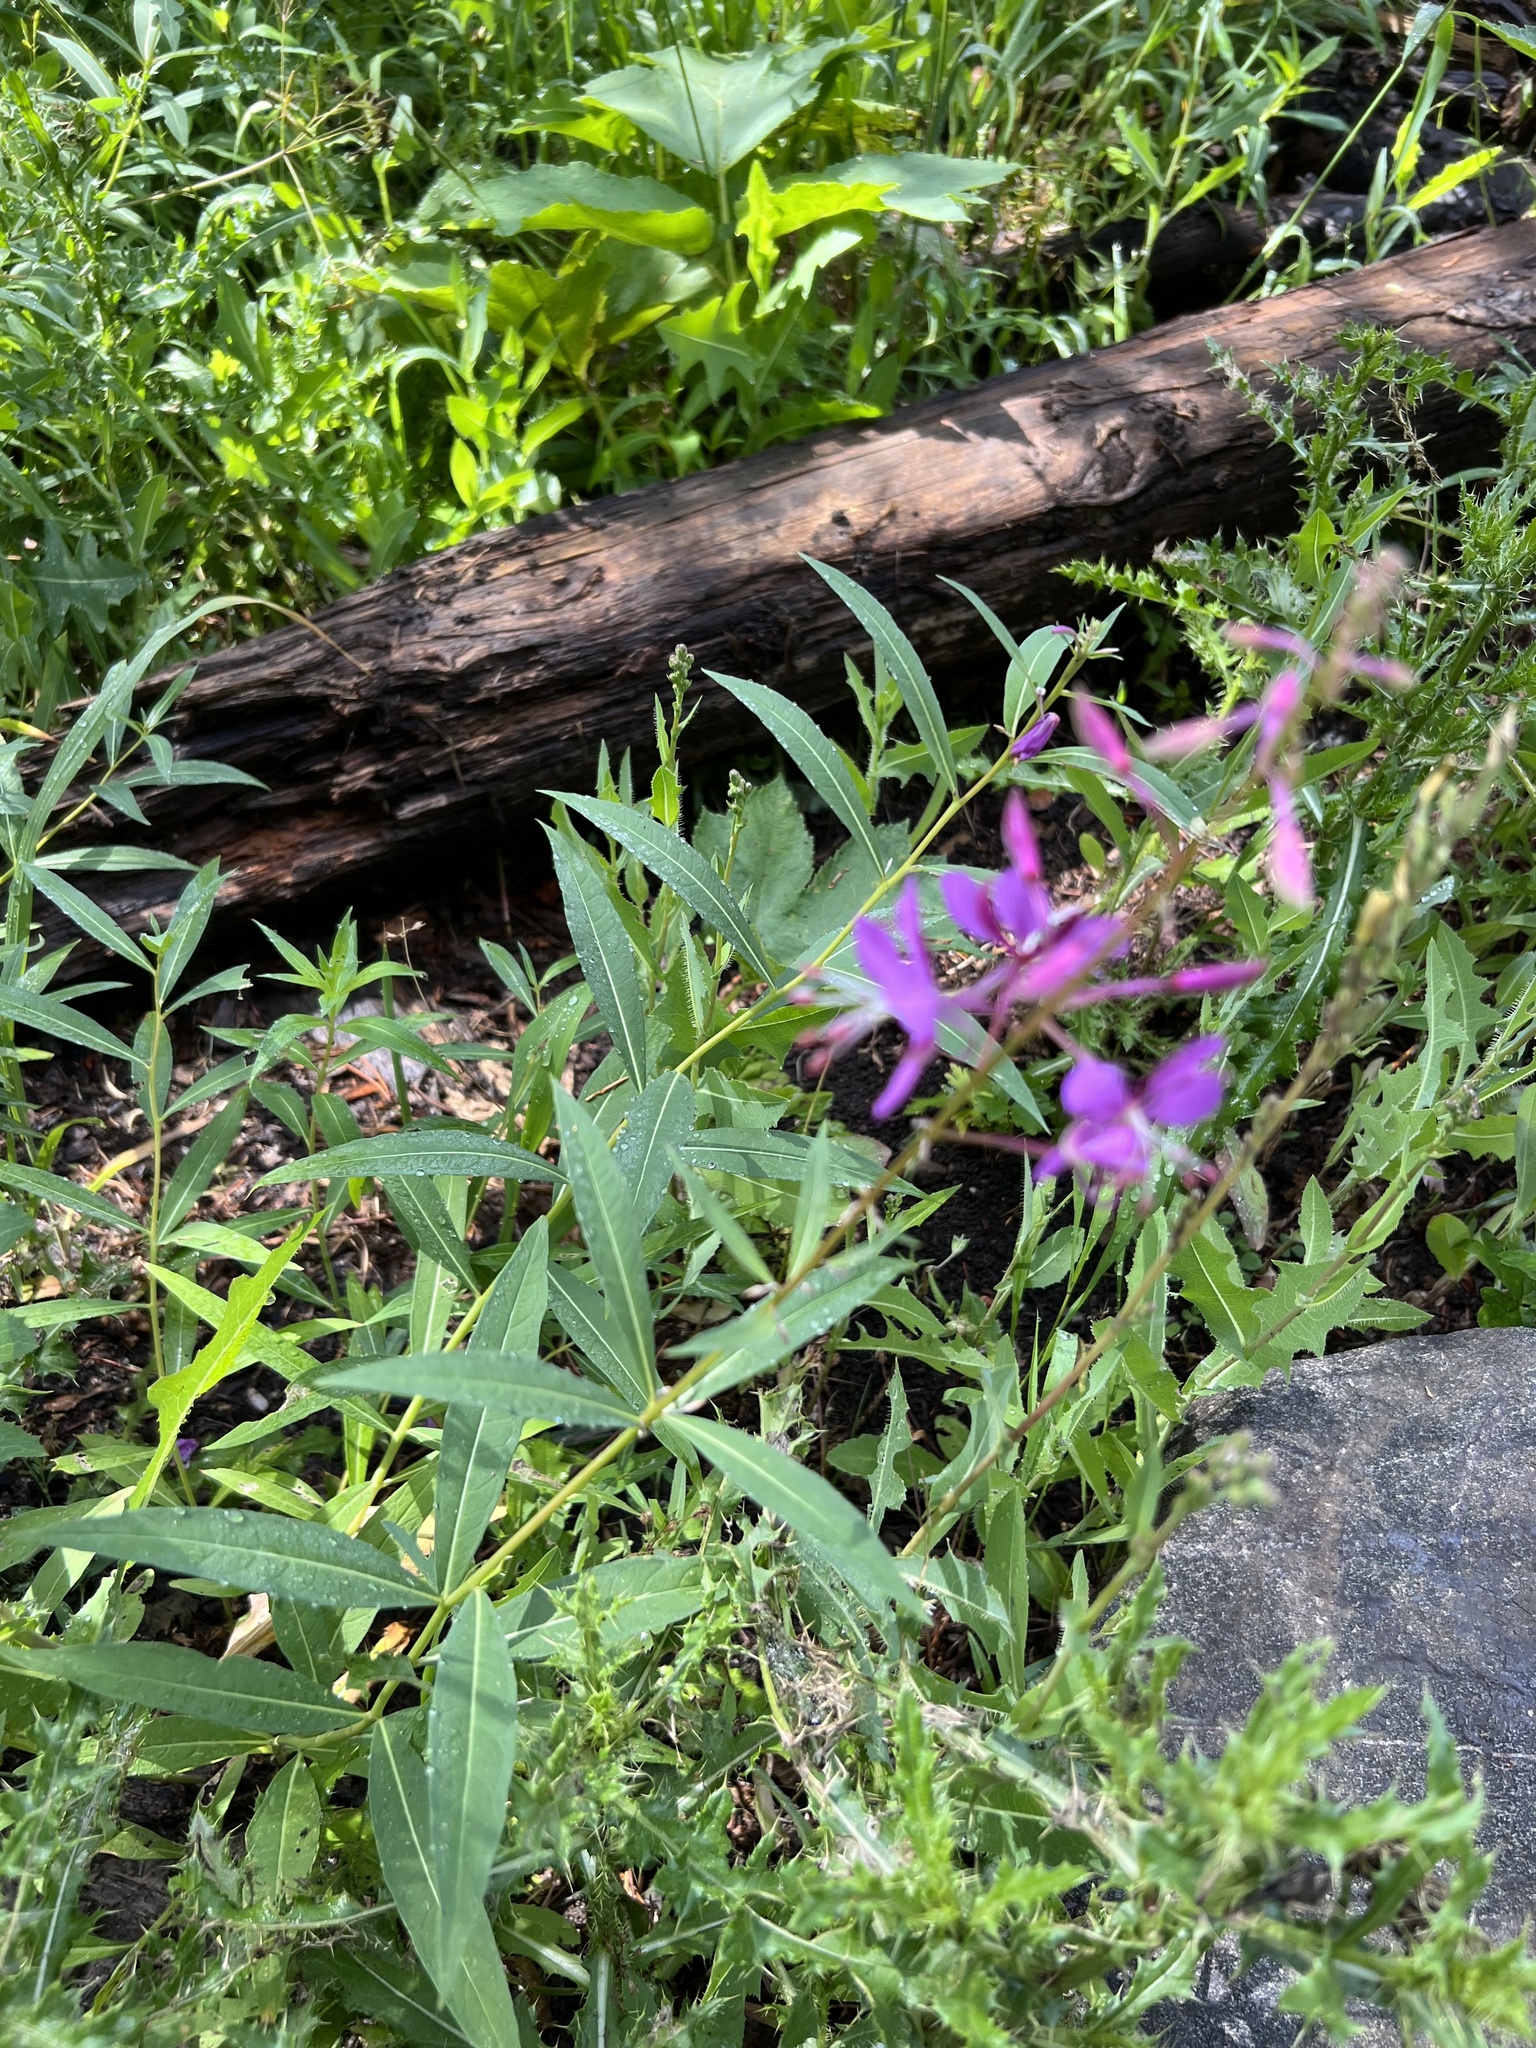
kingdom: Plantae
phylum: Tracheophyta
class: Magnoliopsida
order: Myrtales
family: Onagraceae
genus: Chamaenerion
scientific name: Chamaenerion angustifolium
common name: Fireweed
